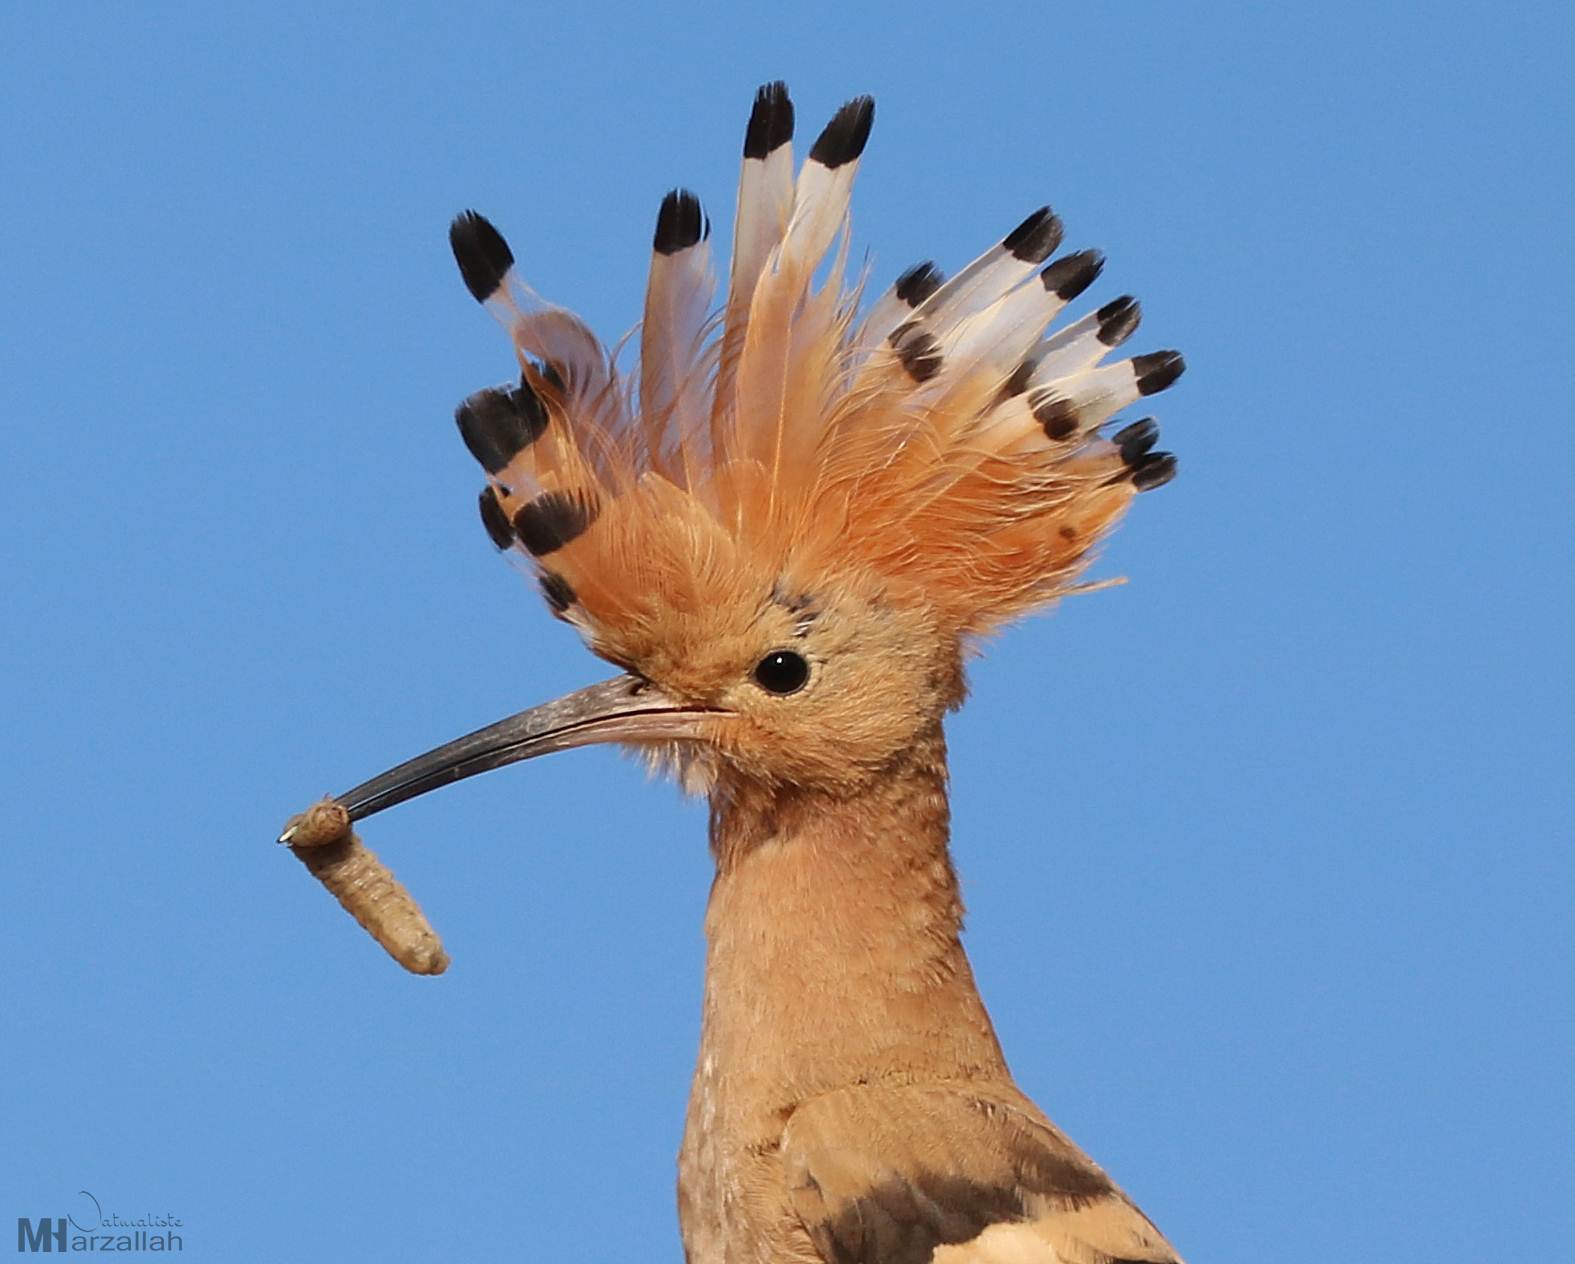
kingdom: Animalia
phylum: Chordata
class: Aves
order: Bucerotiformes
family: Upupidae
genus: Upupa
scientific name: Upupa epops
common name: Eurasian hoopoe
